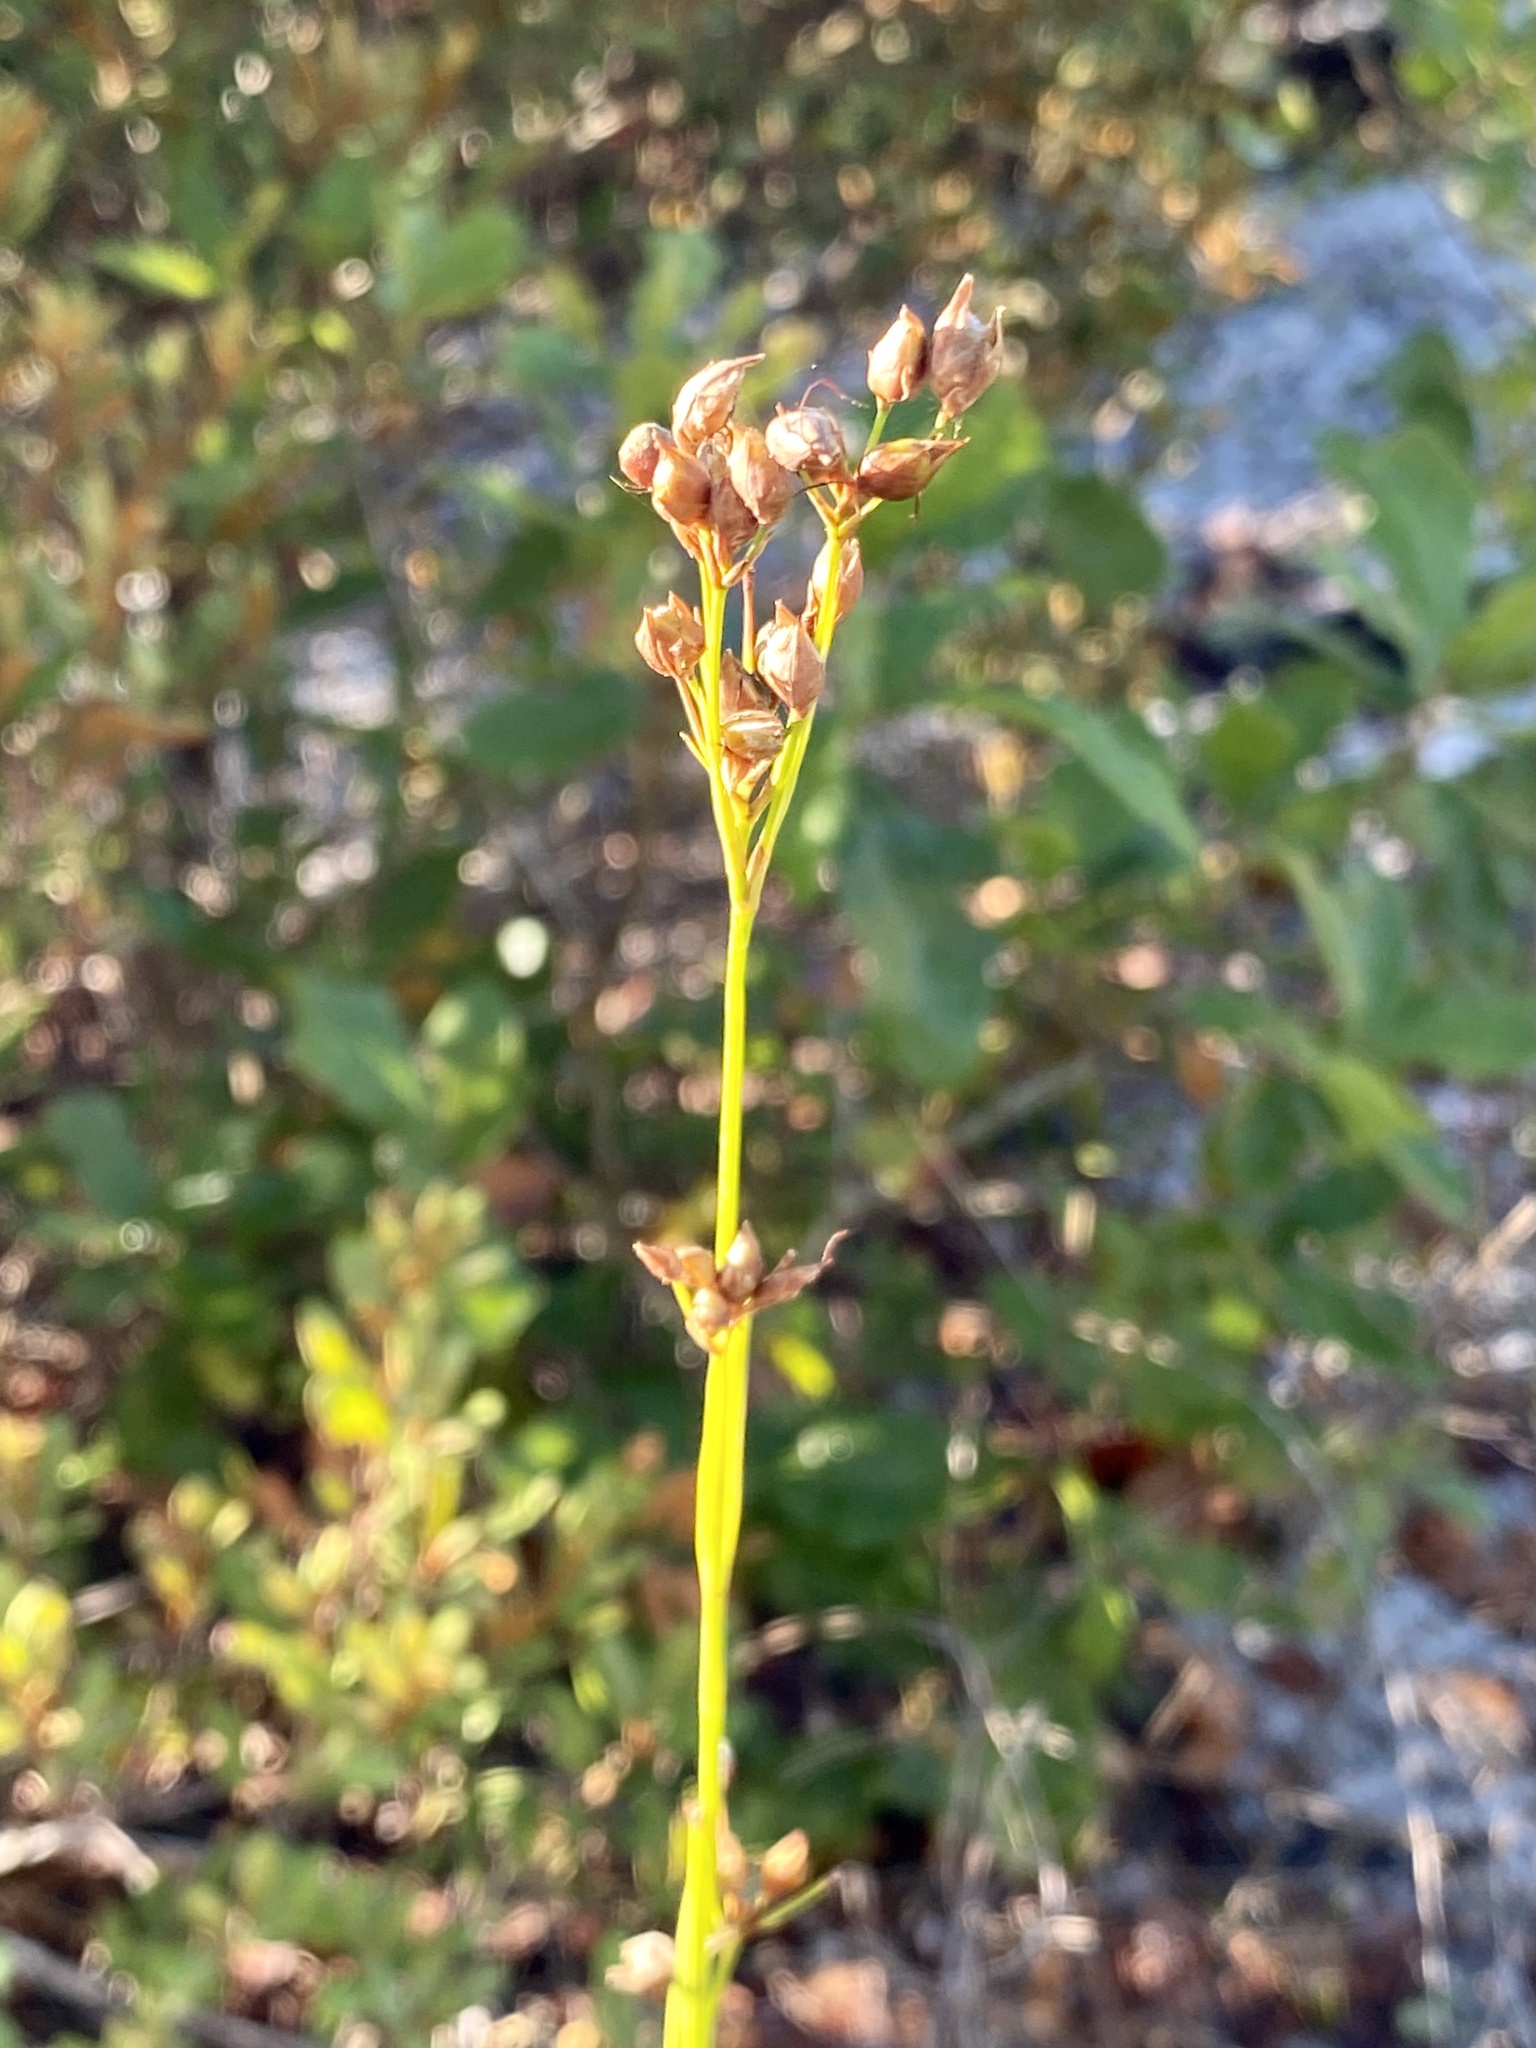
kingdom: Plantae
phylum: Tracheophyta
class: Liliopsida
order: Poales
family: Cyperaceae
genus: Rhynchospora
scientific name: Rhynchospora megalocarpa
